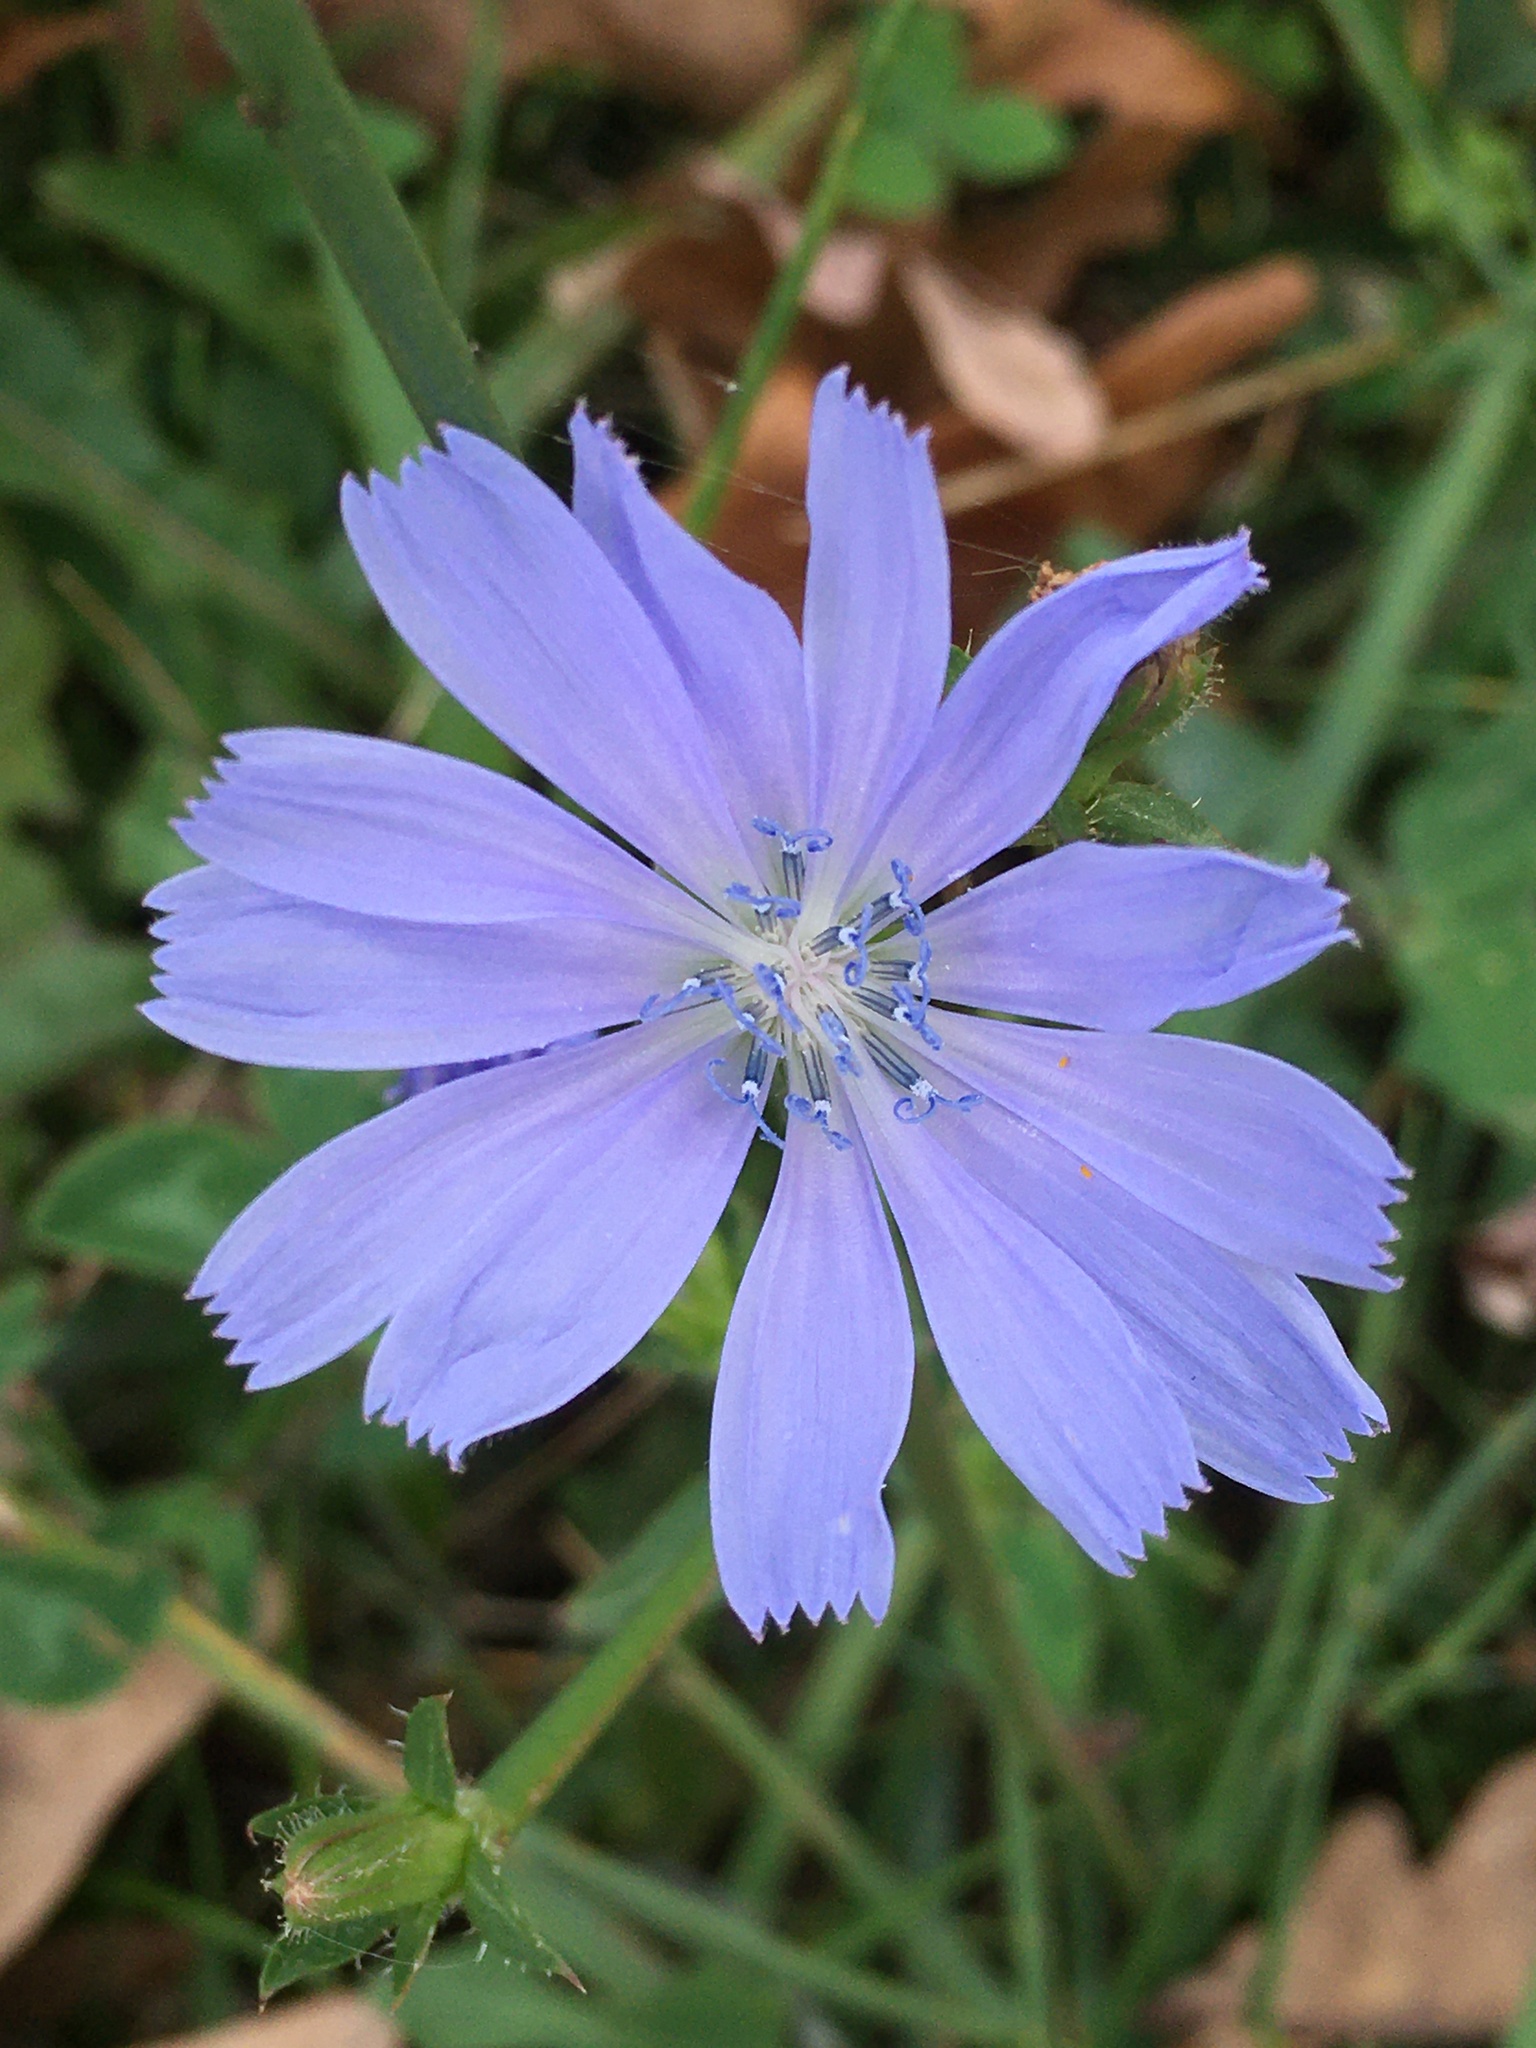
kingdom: Plantae
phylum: Tracheophyta
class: Magnoliopsida
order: Asterales
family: Asteraceae
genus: Cichorium
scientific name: Cichorium intybus
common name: Chicory
